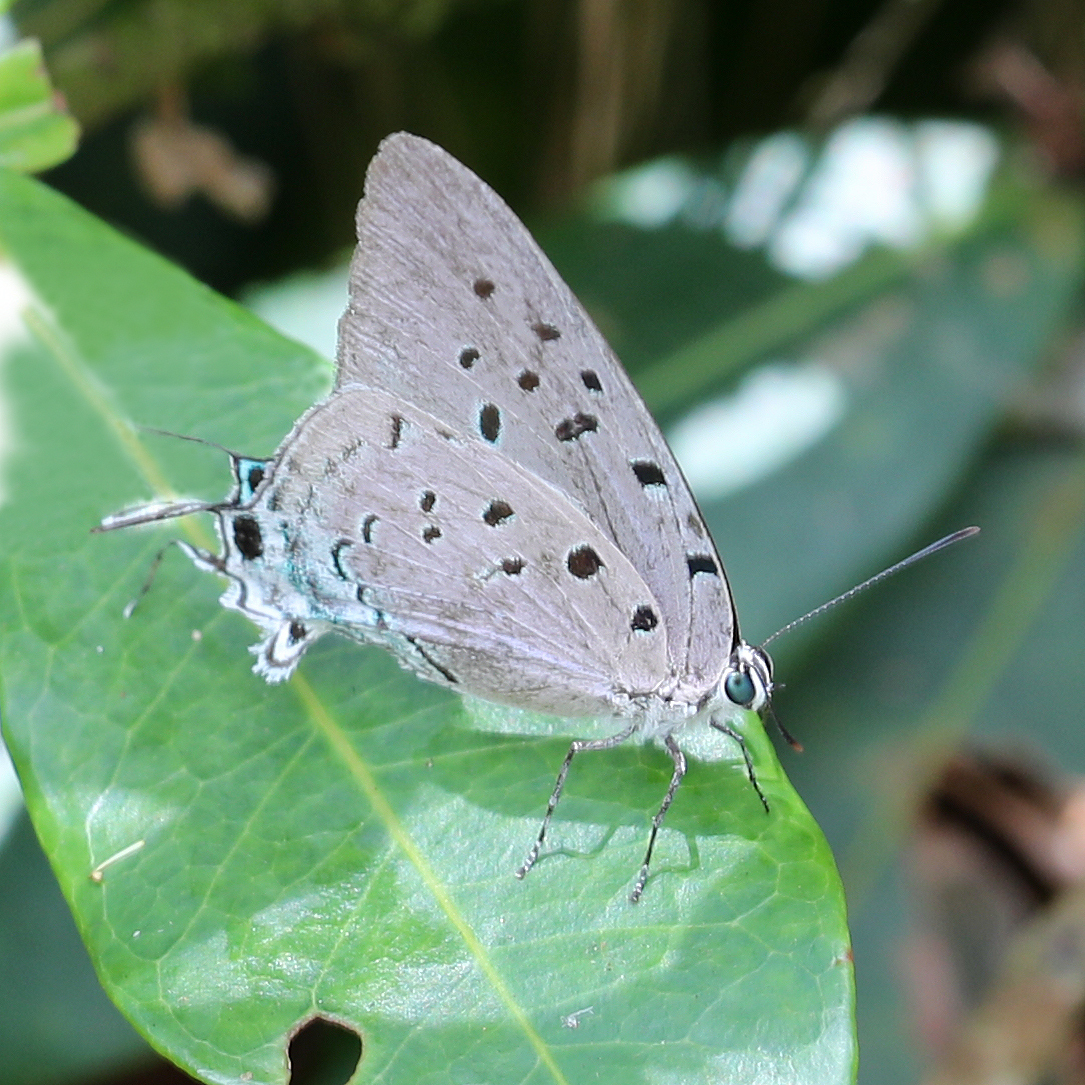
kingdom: Animalia
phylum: Arthropoda
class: Insecta
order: Lepidoptera
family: Lycaenidae
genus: Pseudolycaena
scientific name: Pseudolycaena damo
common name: Sky-blue hairstreak
